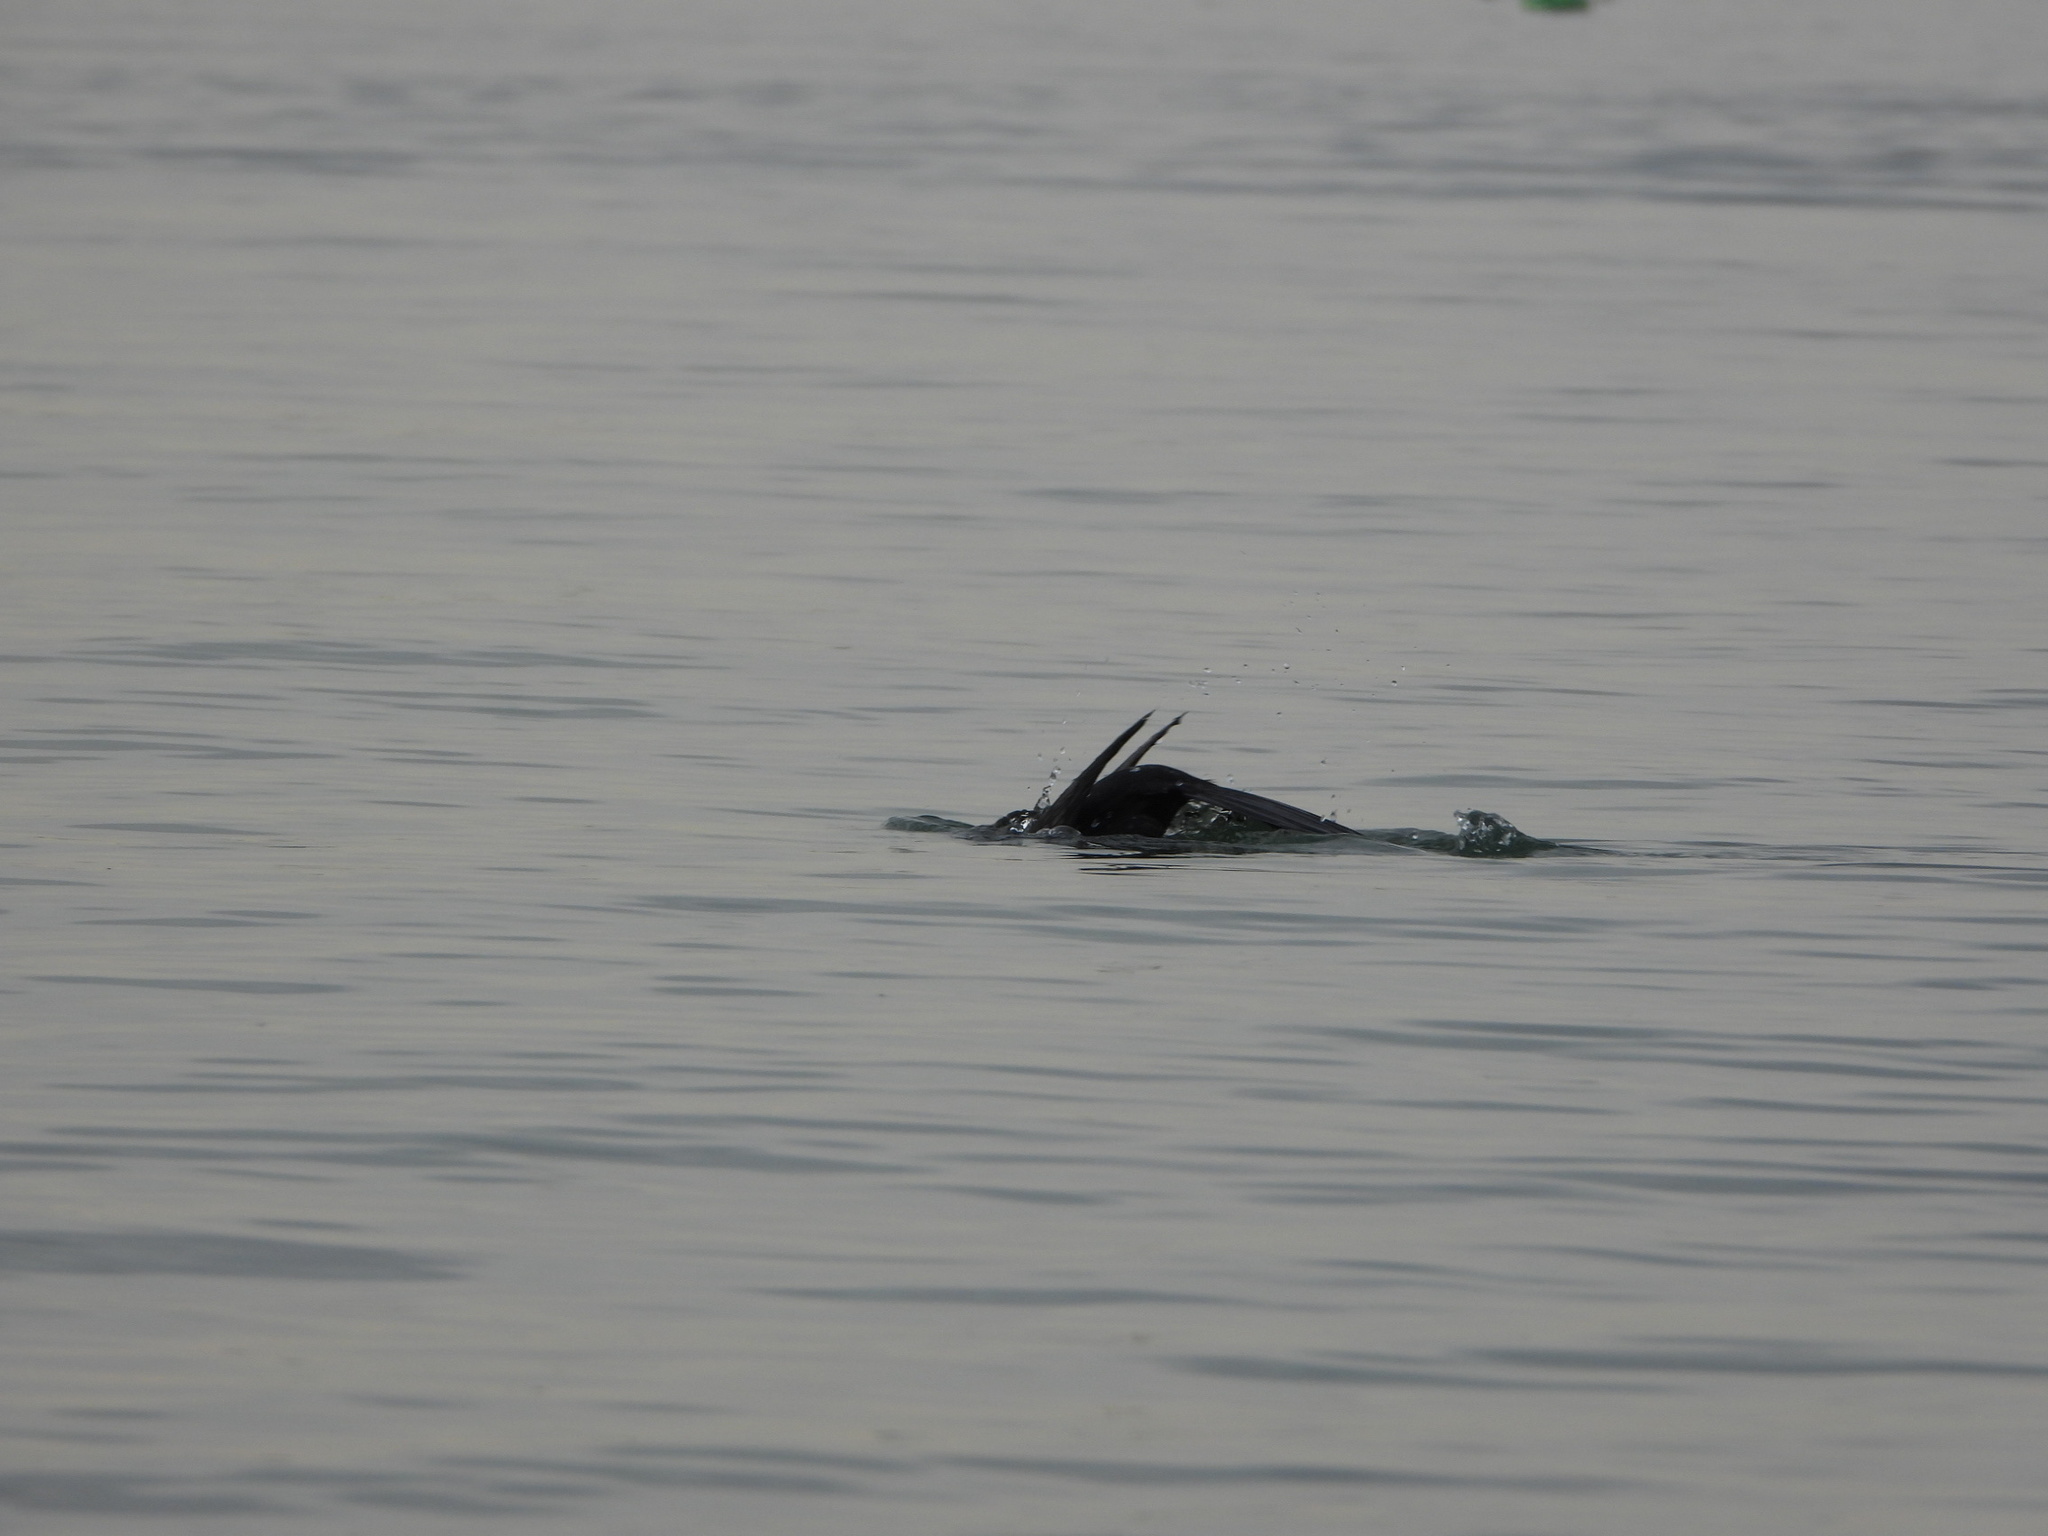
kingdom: Animalia
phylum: Chordata
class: Aves
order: Suliformes
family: Phalacrocoracidae
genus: Phalacrocorax
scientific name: Phalacrocorax auritus
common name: Double-crested cormorant
